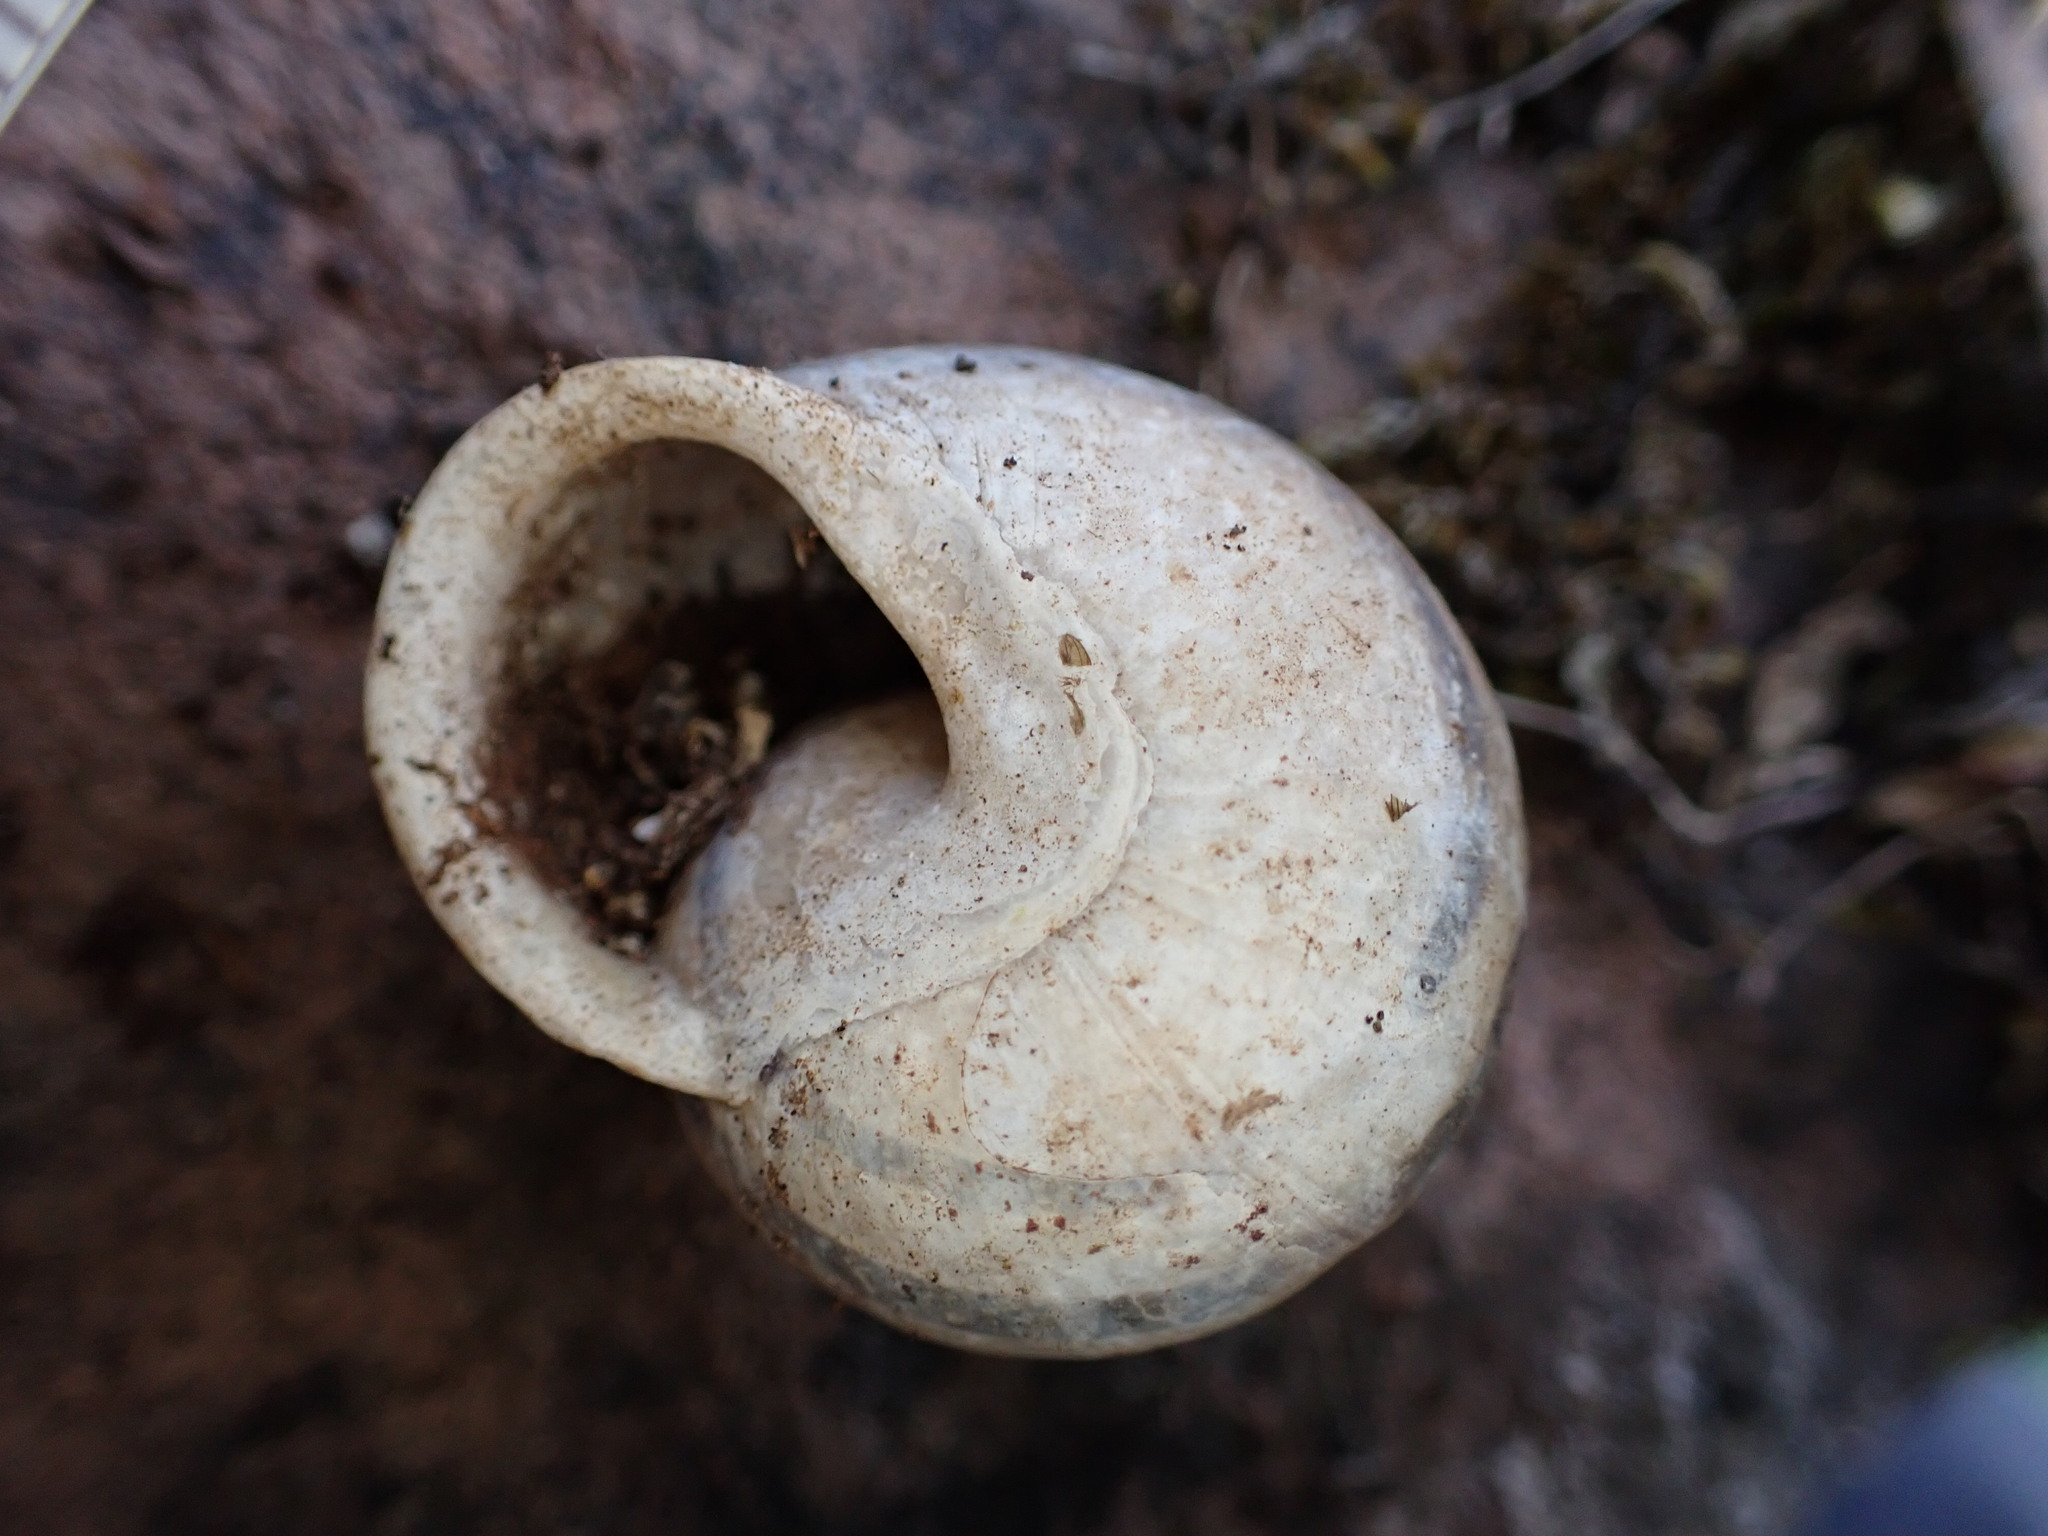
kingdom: Animalia
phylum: Mollusca
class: Gastropoda
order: Stylommatophora
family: Helicidae
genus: Eobania
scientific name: Eobania vermiculata
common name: Chocolateband snail
